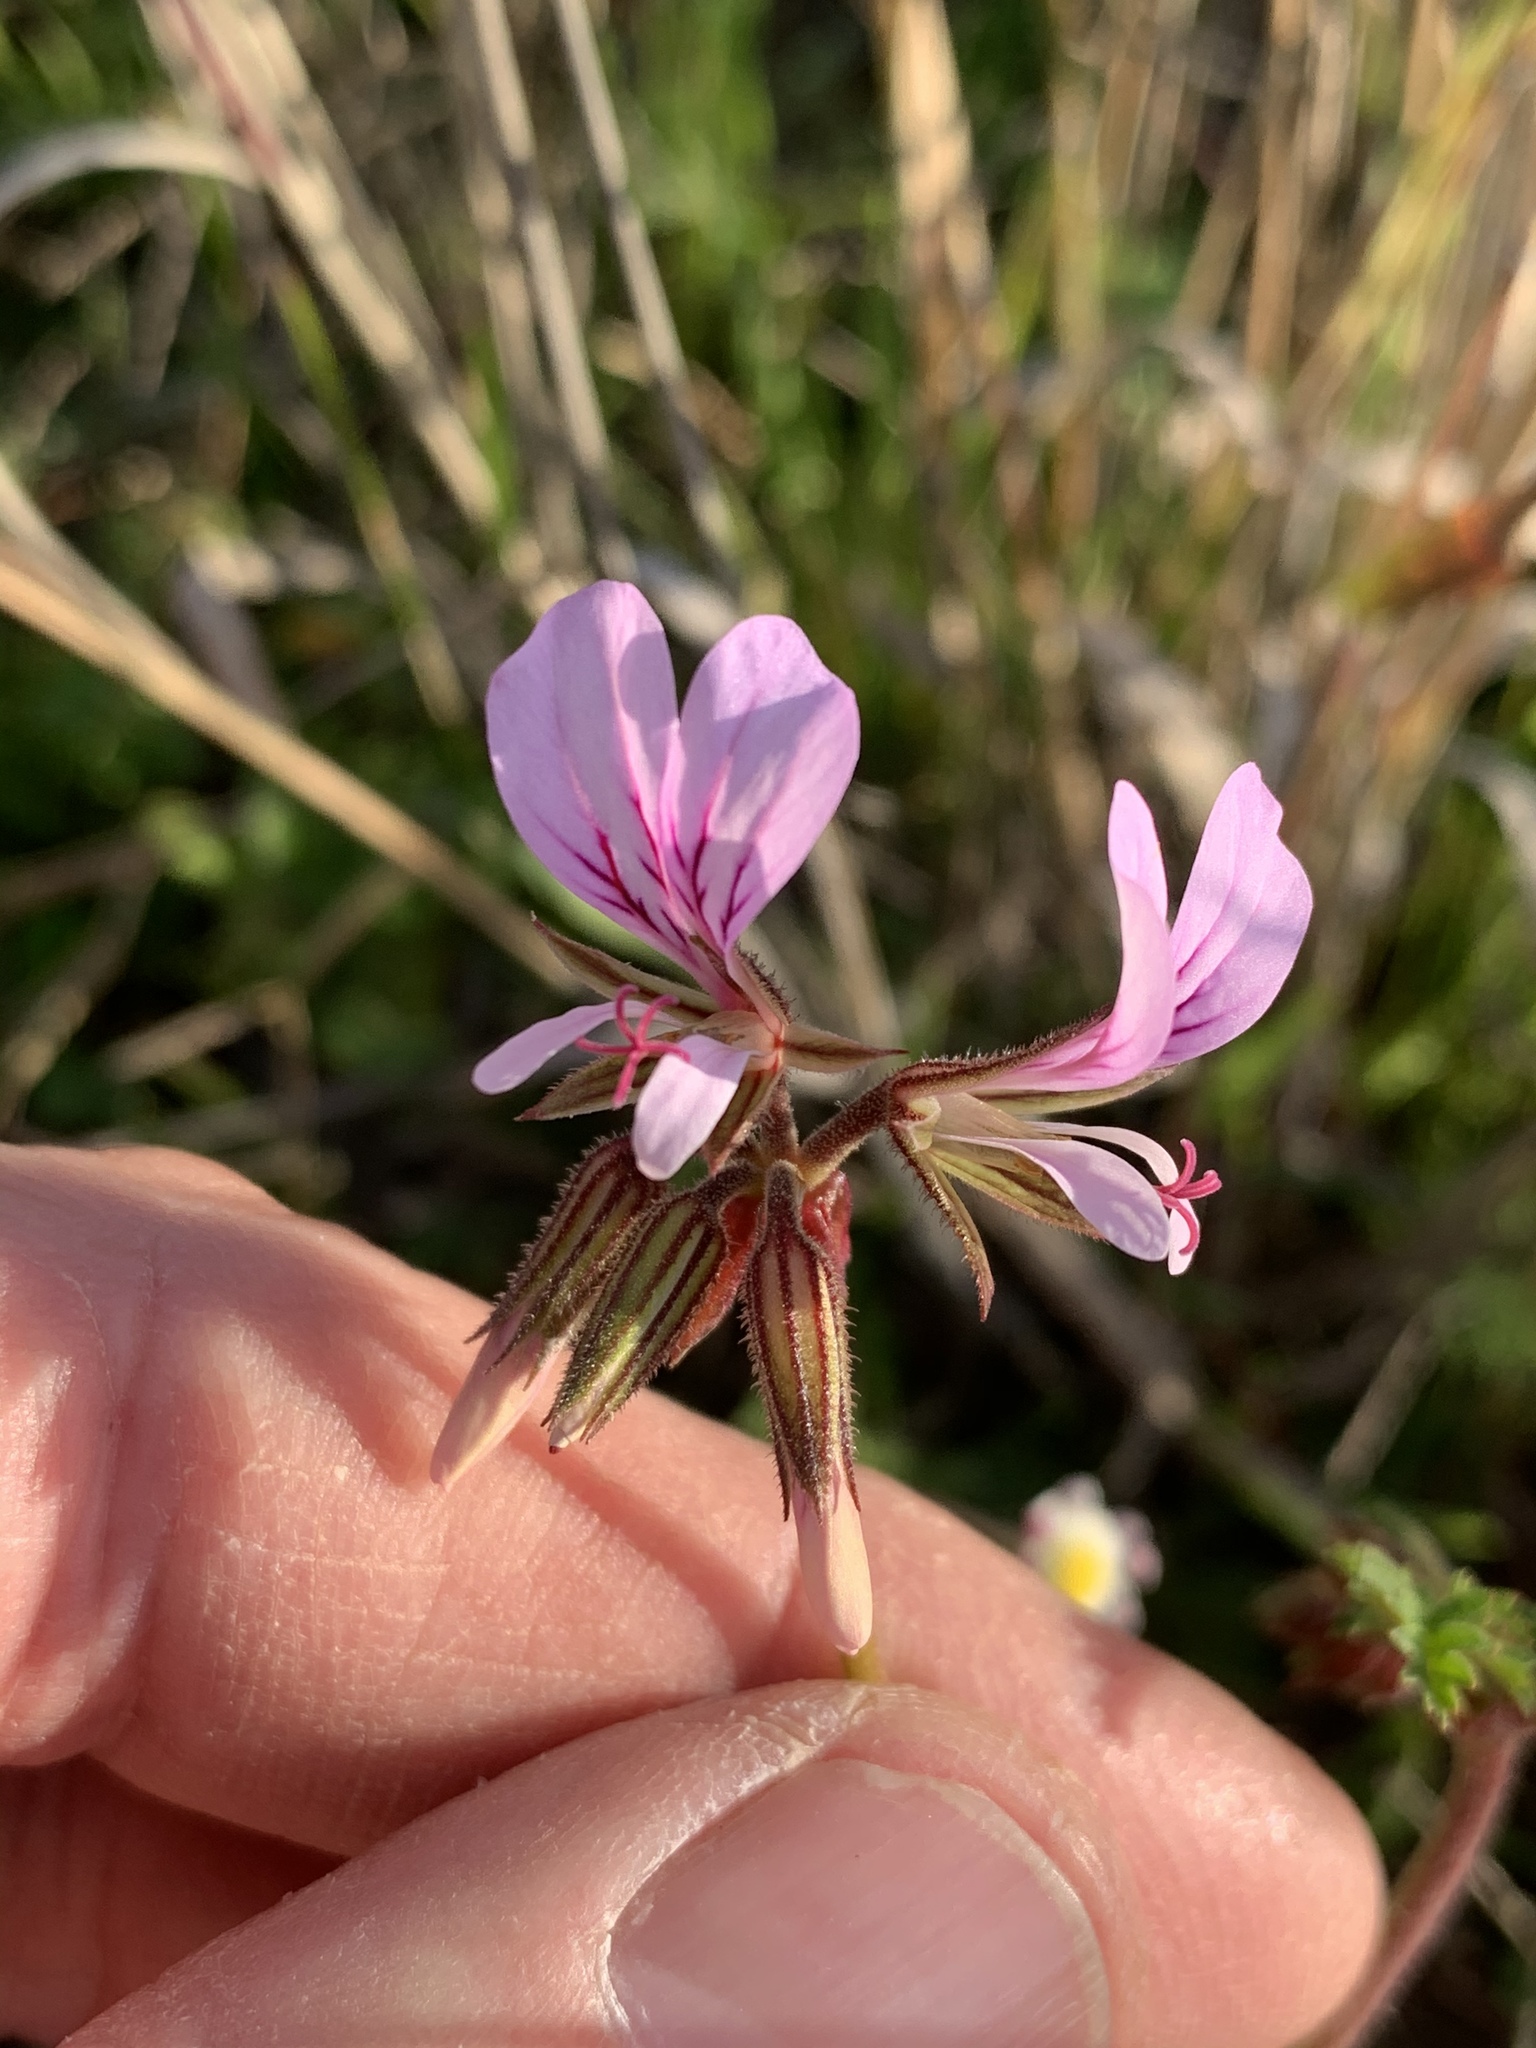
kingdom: Plantae
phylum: Tracheophyta
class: Magnoliopsida
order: Geraniales
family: Geraniaceae
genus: Pelargonium
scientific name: Pelargonium myrrhifolium
